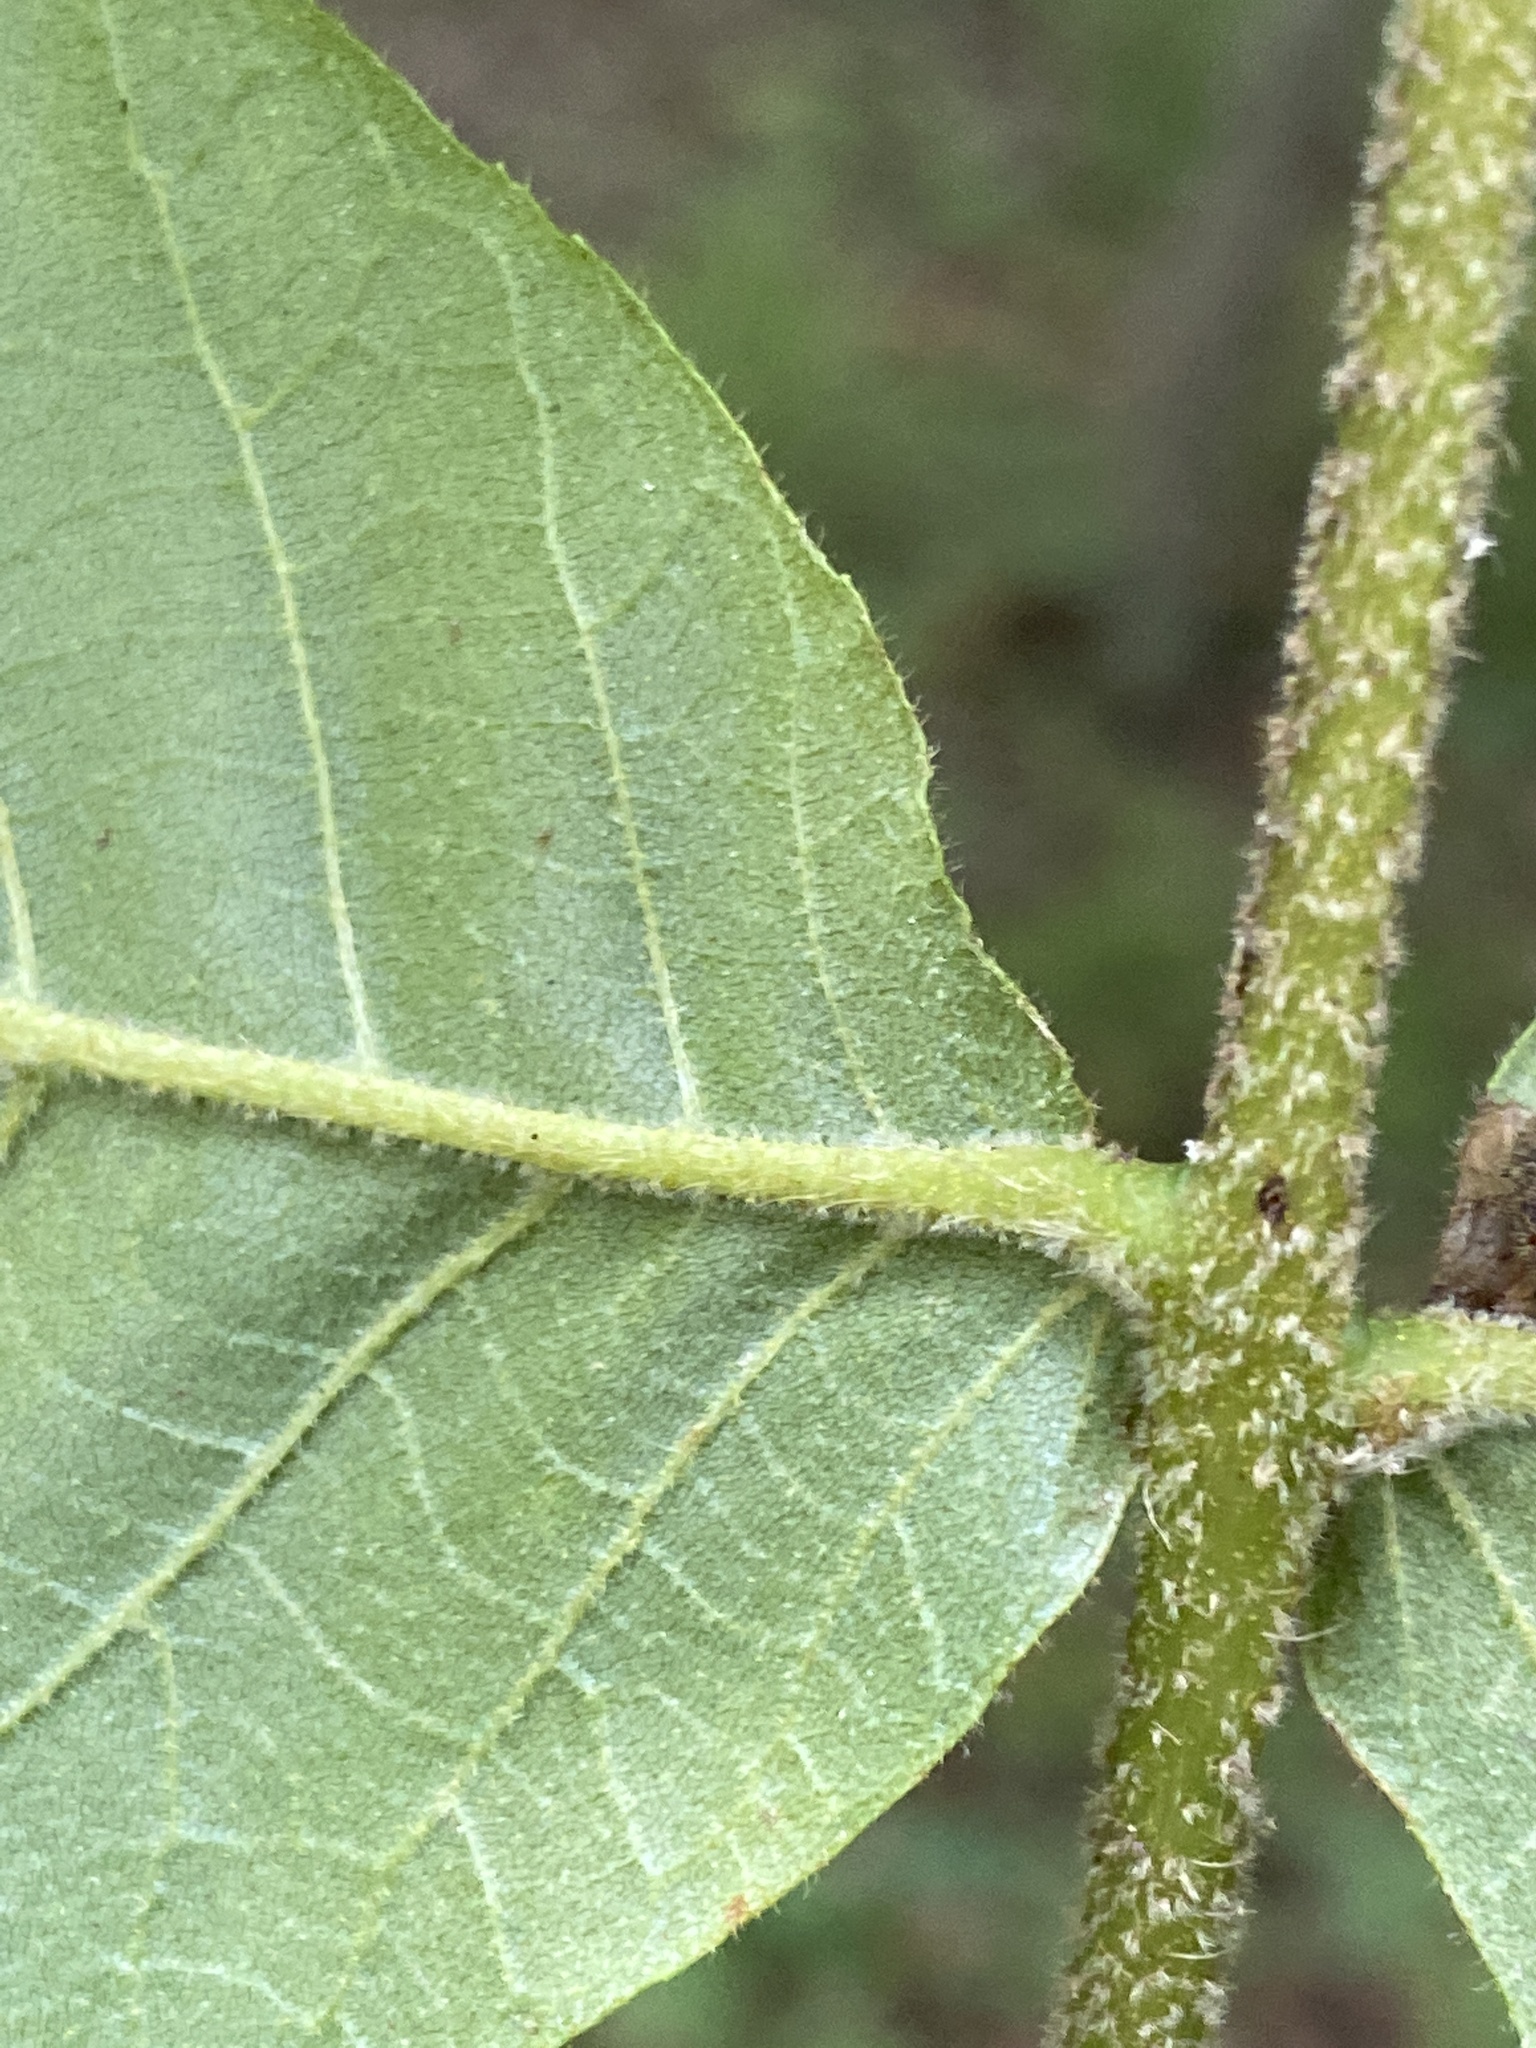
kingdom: Plantae
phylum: Tracheophyta
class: Magnoliopsida
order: Fagales
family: Juglandaceae
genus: Carya
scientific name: Carya alba
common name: Mockernut hickory
